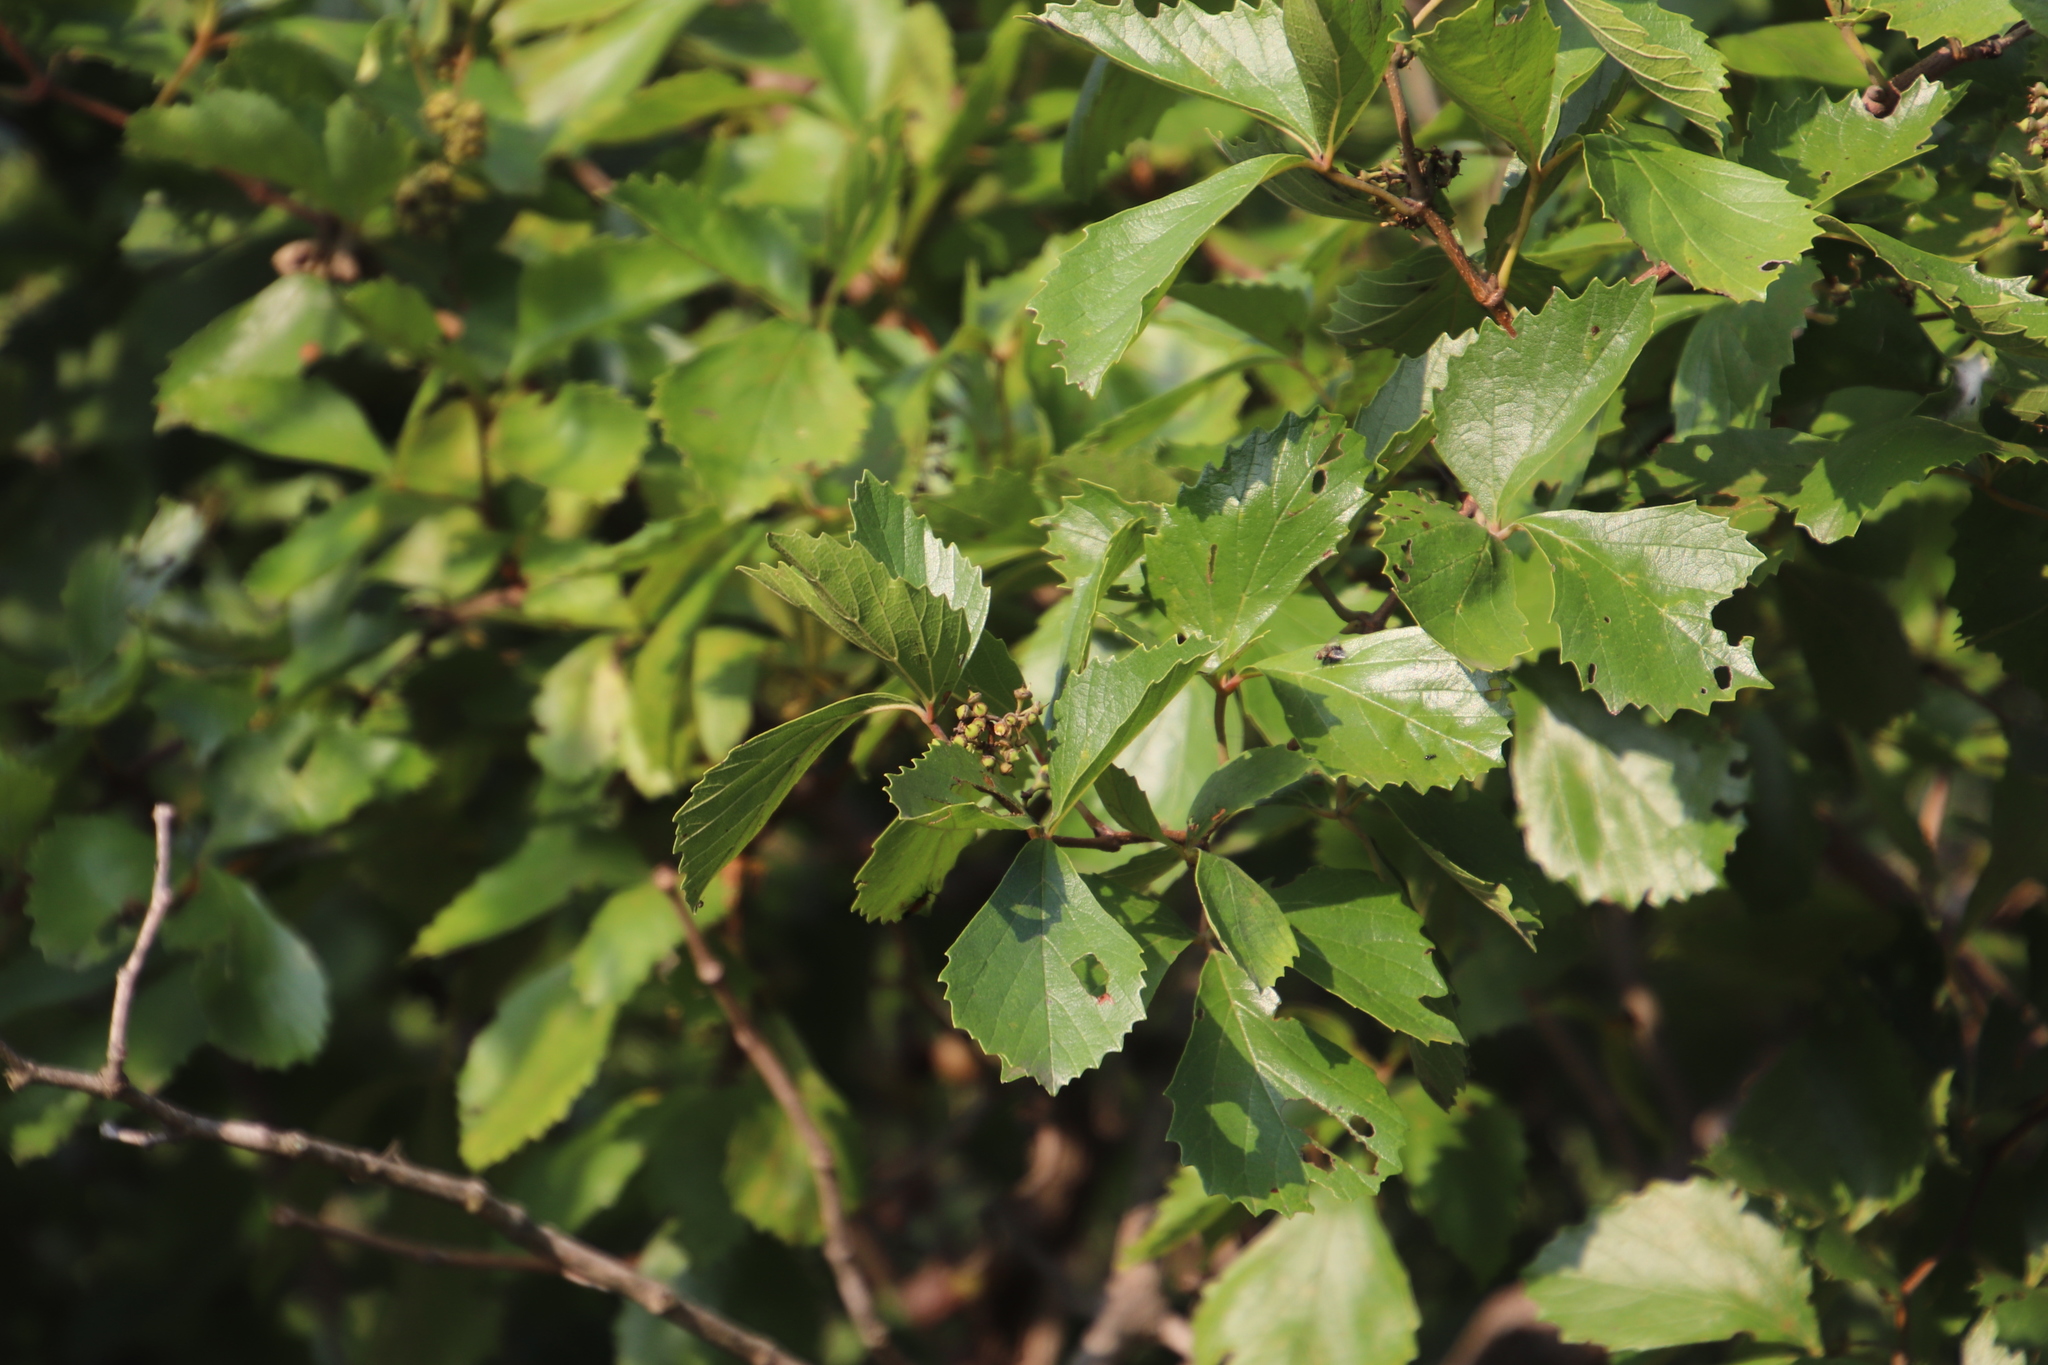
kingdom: Plantae
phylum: Tracheophyta
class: Magnoliopsida
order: Vitales
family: Vitaceae
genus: Rhoicissus
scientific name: Rhoicissus tridentata
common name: Common forest grape
